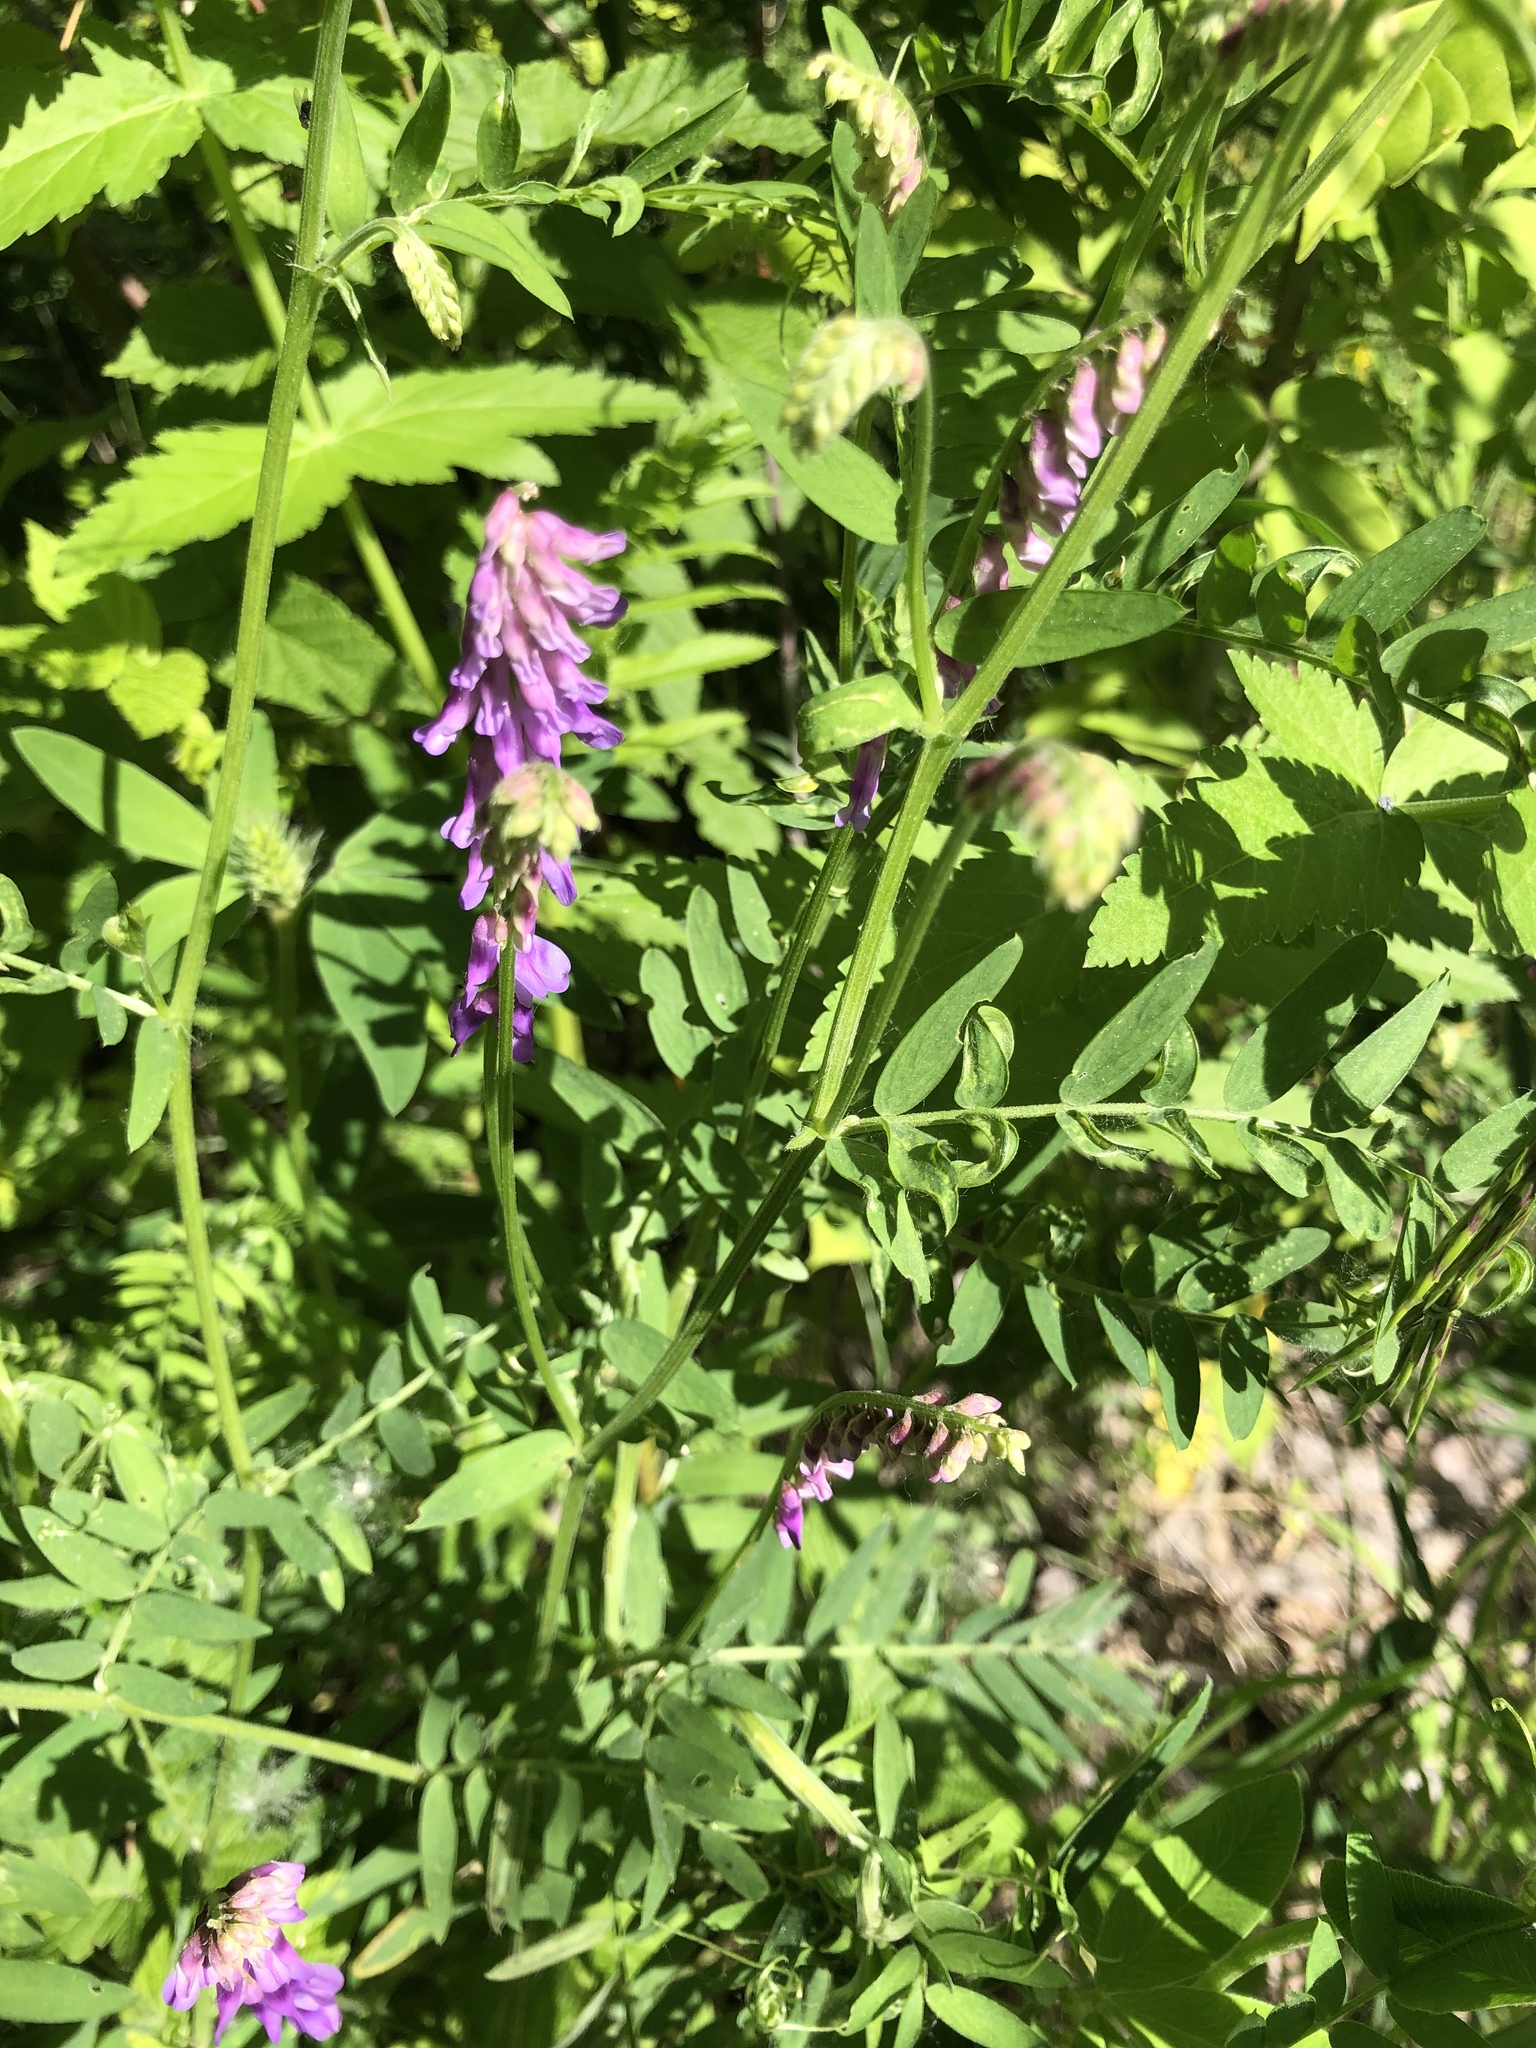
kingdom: Plantae
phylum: Tracheophyta
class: Magnoliopsida
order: Fabales
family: Fabaceae
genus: Vicia
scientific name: Vicia cracca
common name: Bird vetch
